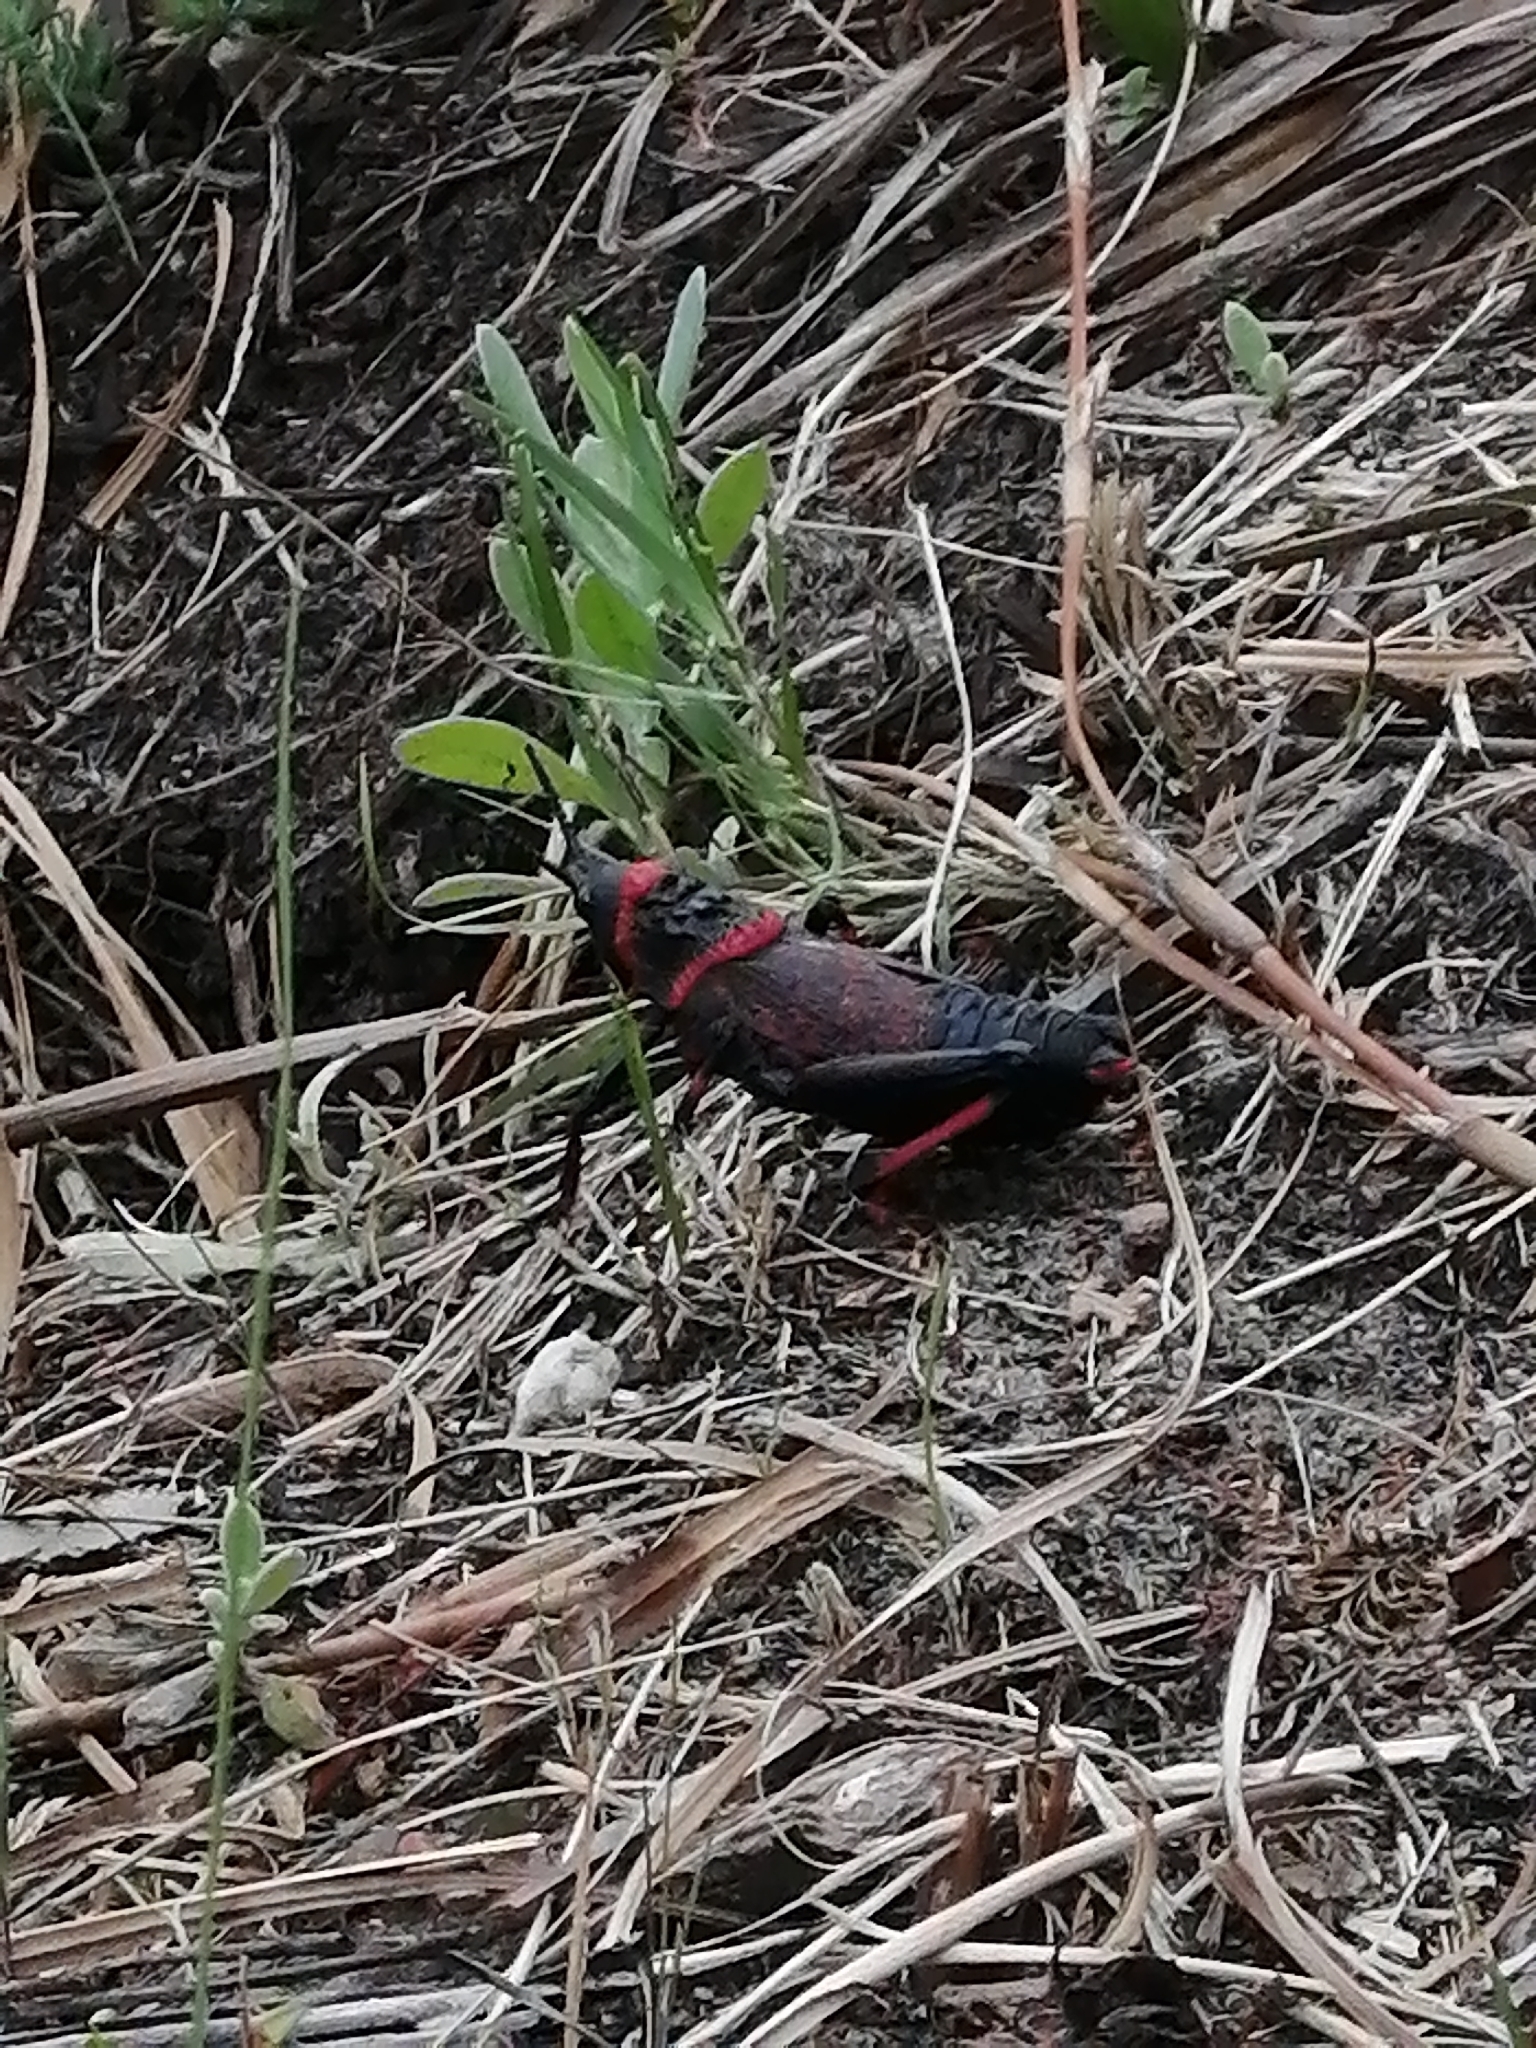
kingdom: Animalia
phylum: Arthropoda
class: Insecta
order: Orthoptera
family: Pyrgomorphidae
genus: Dictyophorus
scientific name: Dictyophorus spumans
